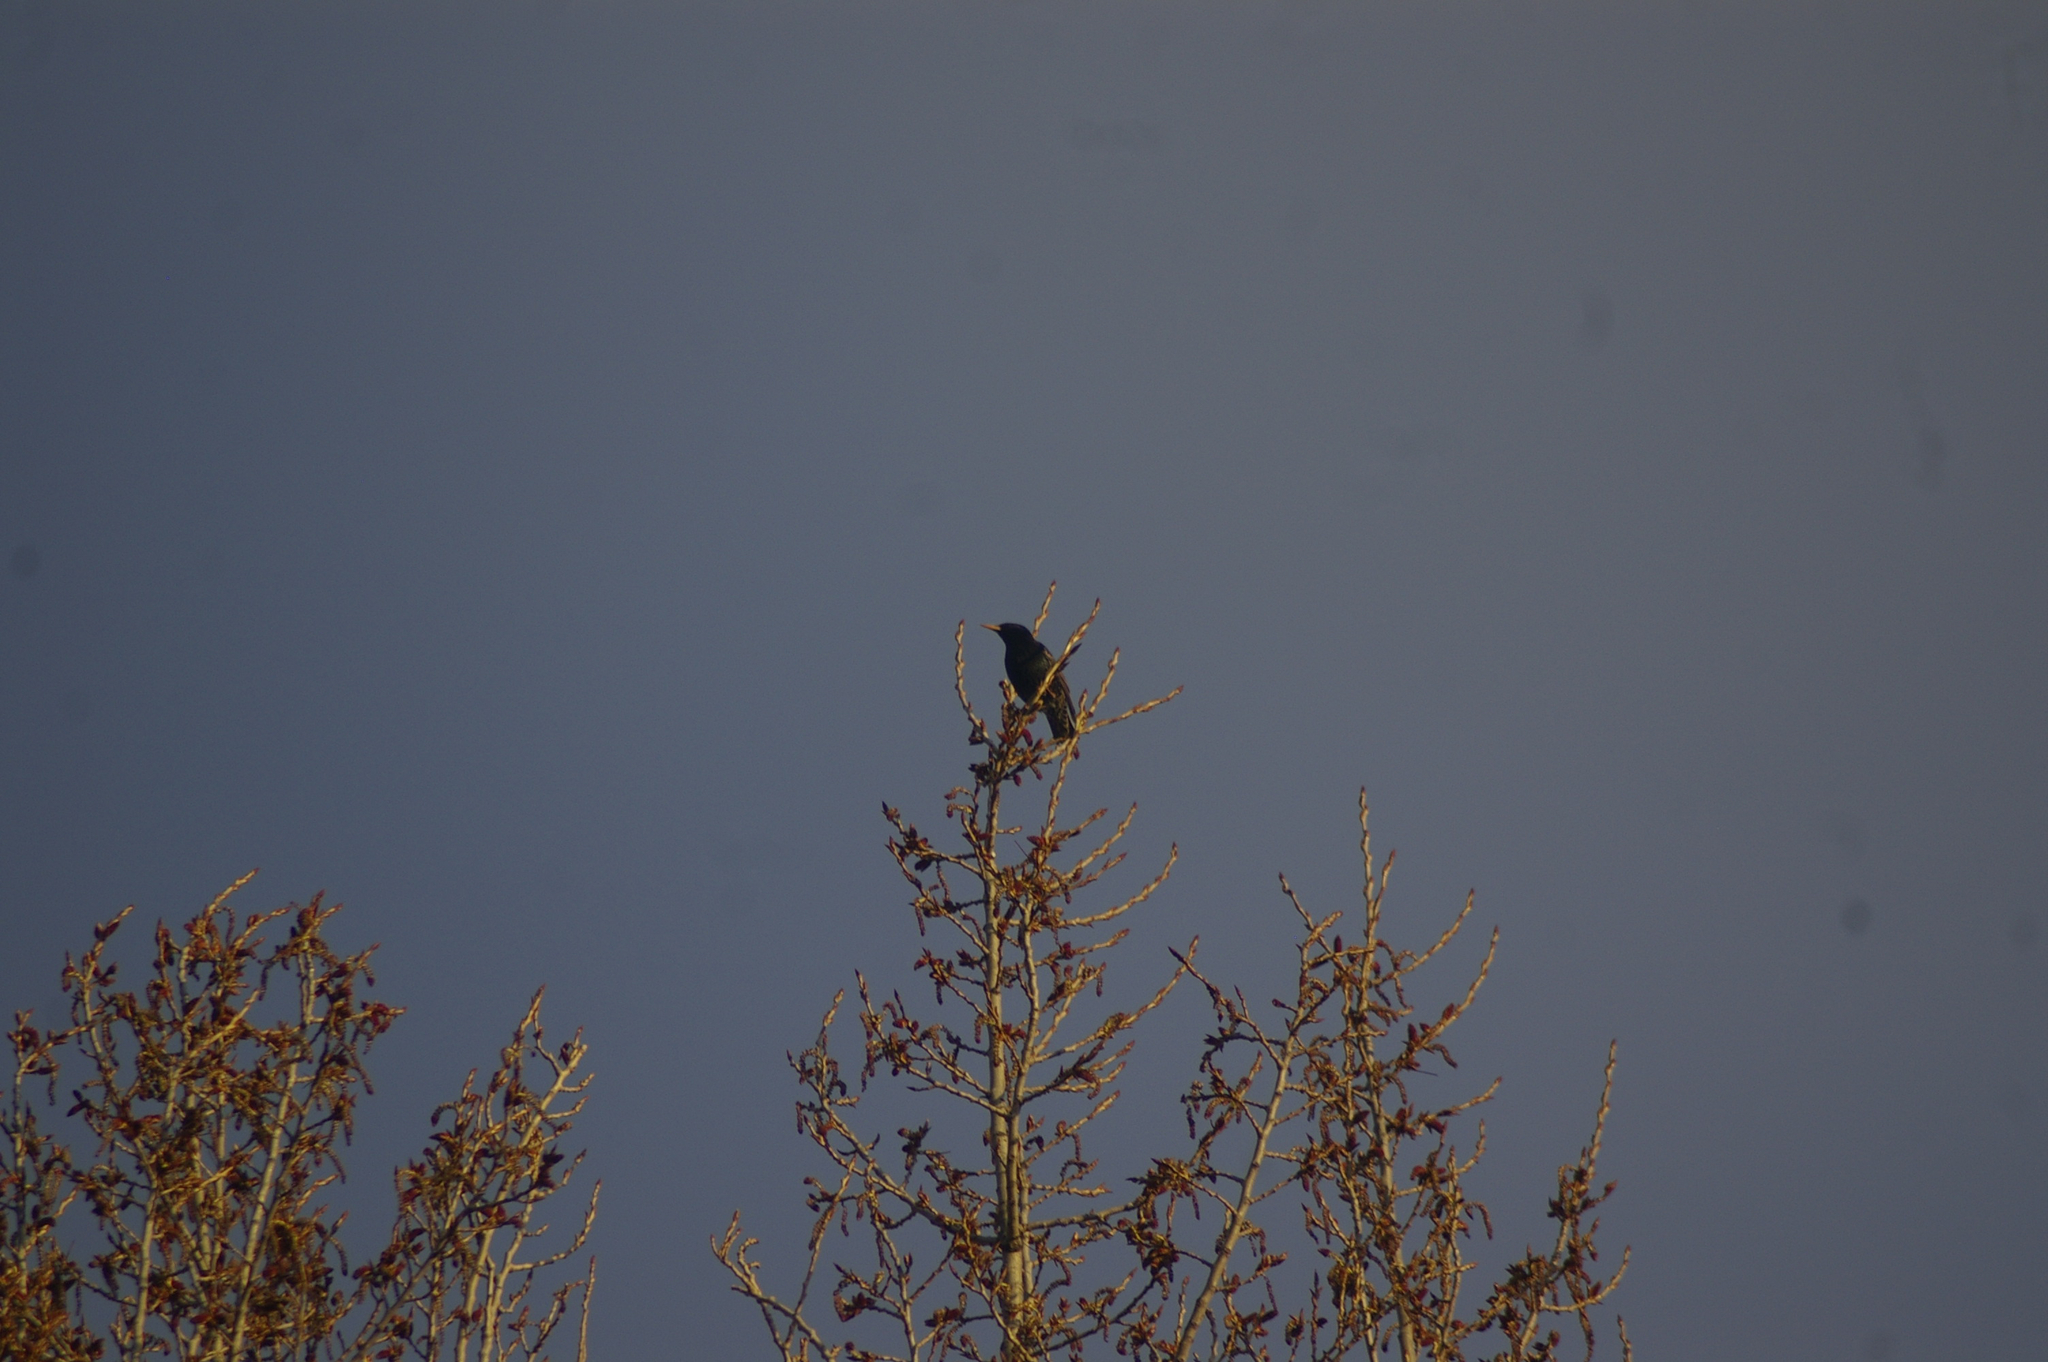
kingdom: Animalia
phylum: Chordata
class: Aves
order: Passeriformes
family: Sturnidae
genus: Sturnus
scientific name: Sturnus vulgaris
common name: Common starling
